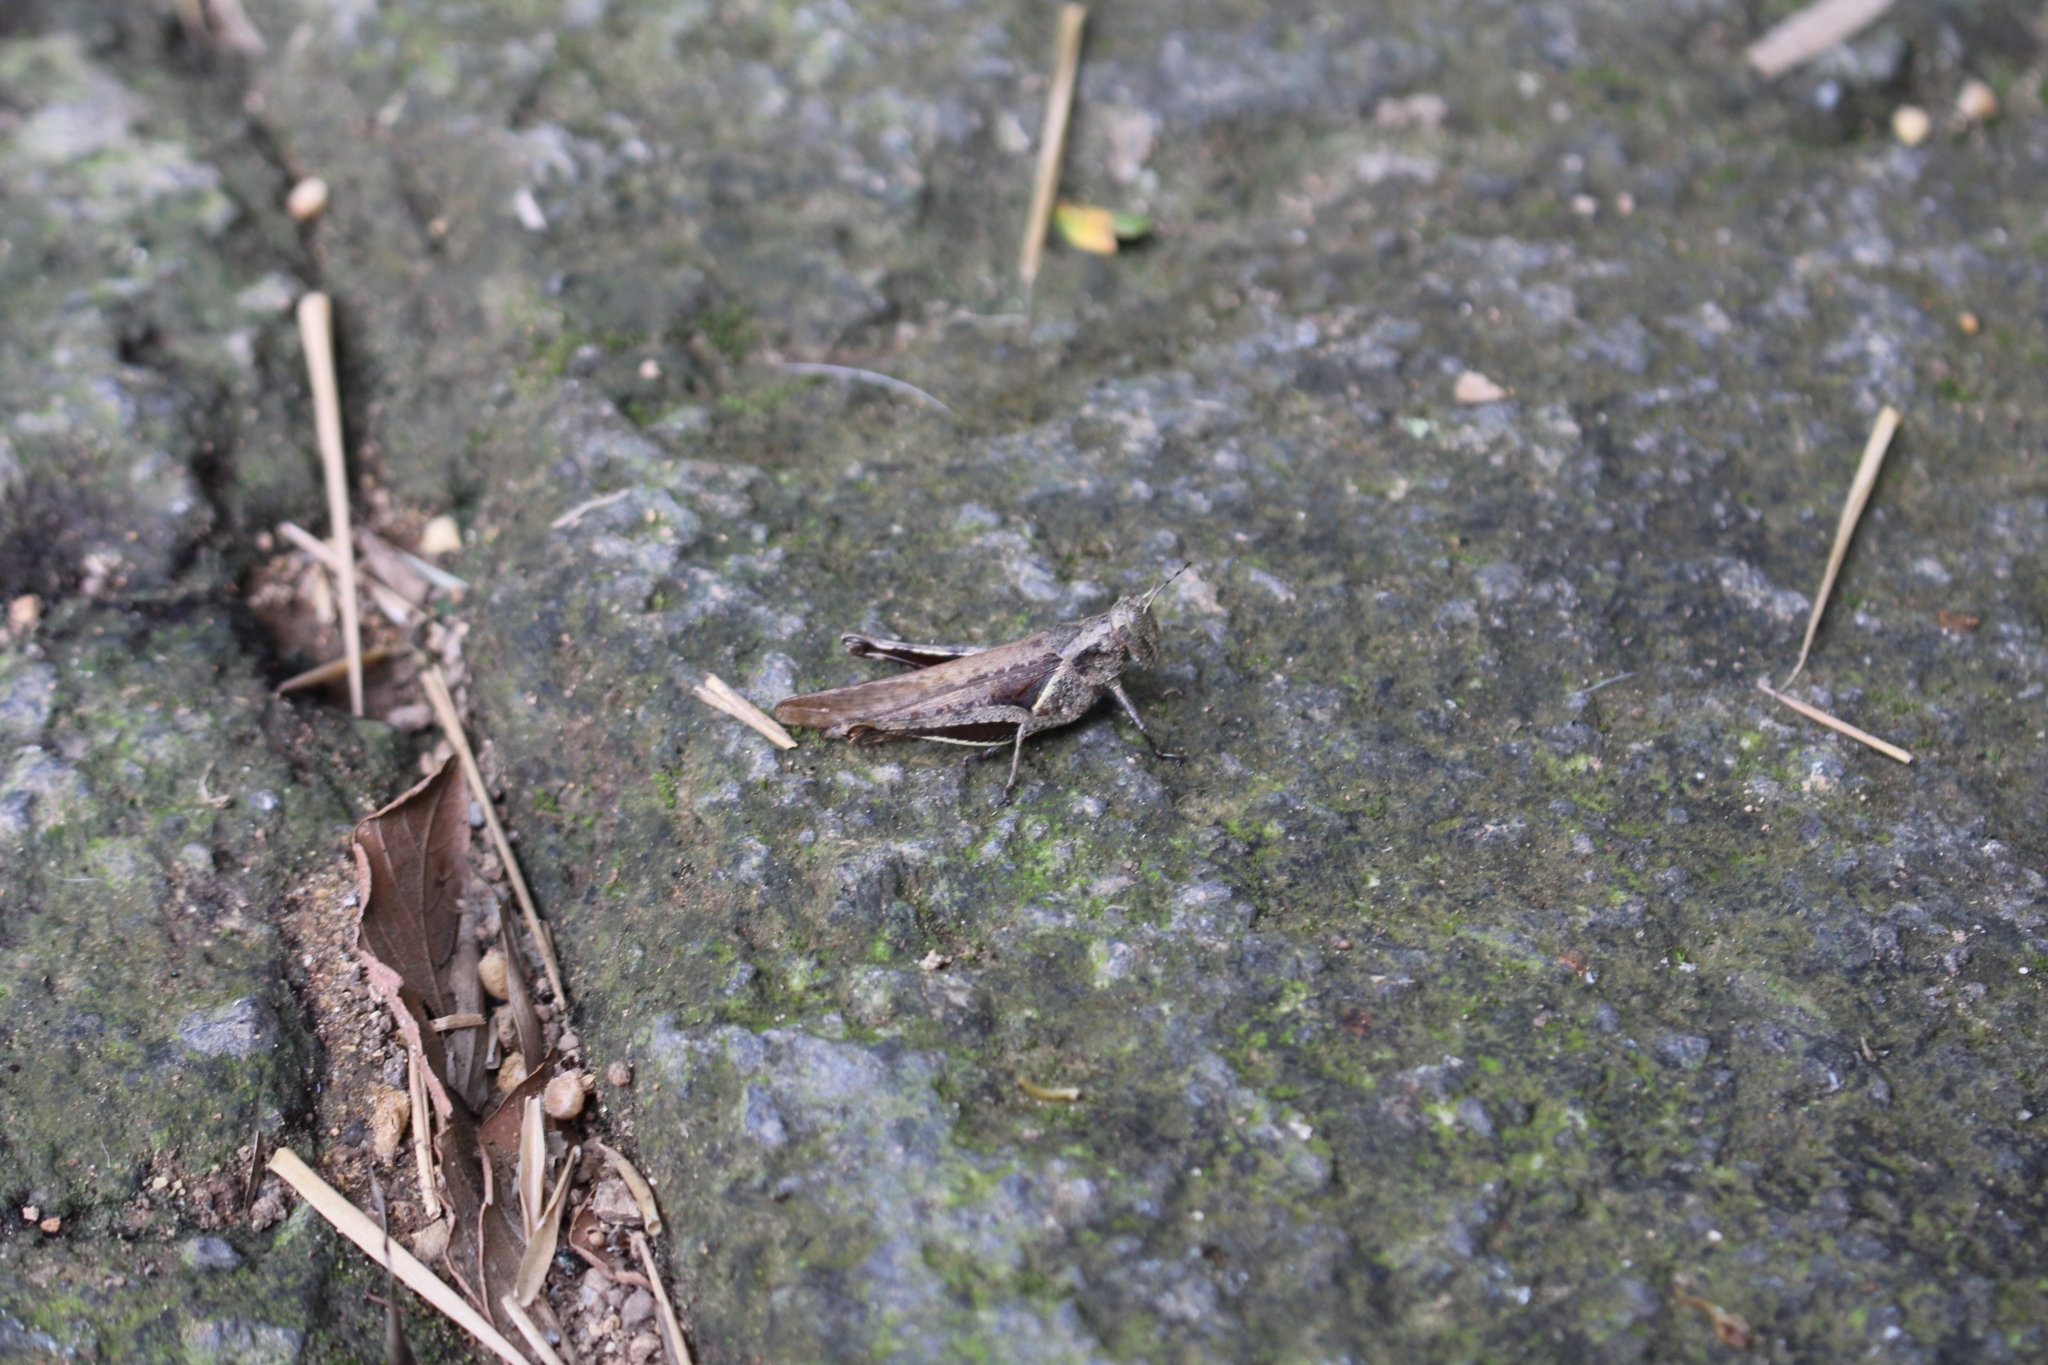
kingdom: Animalia
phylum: Arthropoda
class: Insecta
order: Orthoptera
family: Acrididae
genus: Abracris
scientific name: Abracris flavolineata
